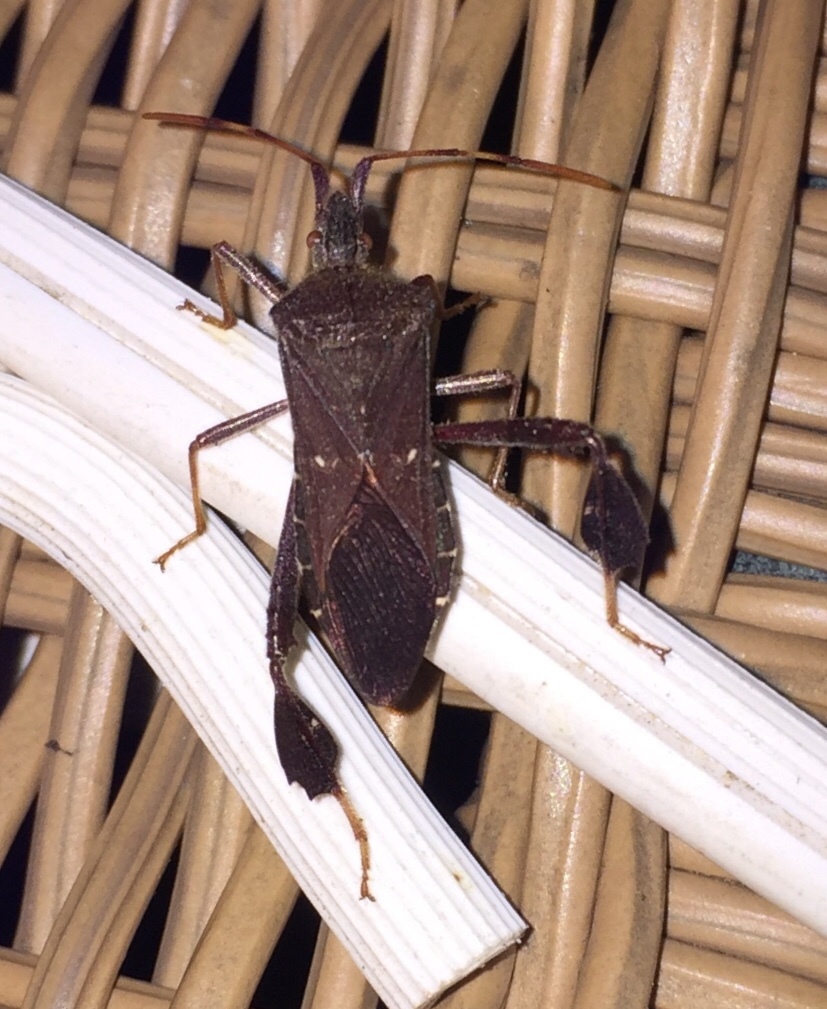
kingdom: Animalia
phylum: Arthropoda
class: Insecta
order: Hemiptera
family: Coreidae
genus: Leptoglossus
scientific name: Leptoglossus oppositus
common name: Northern leaf-footed bug
